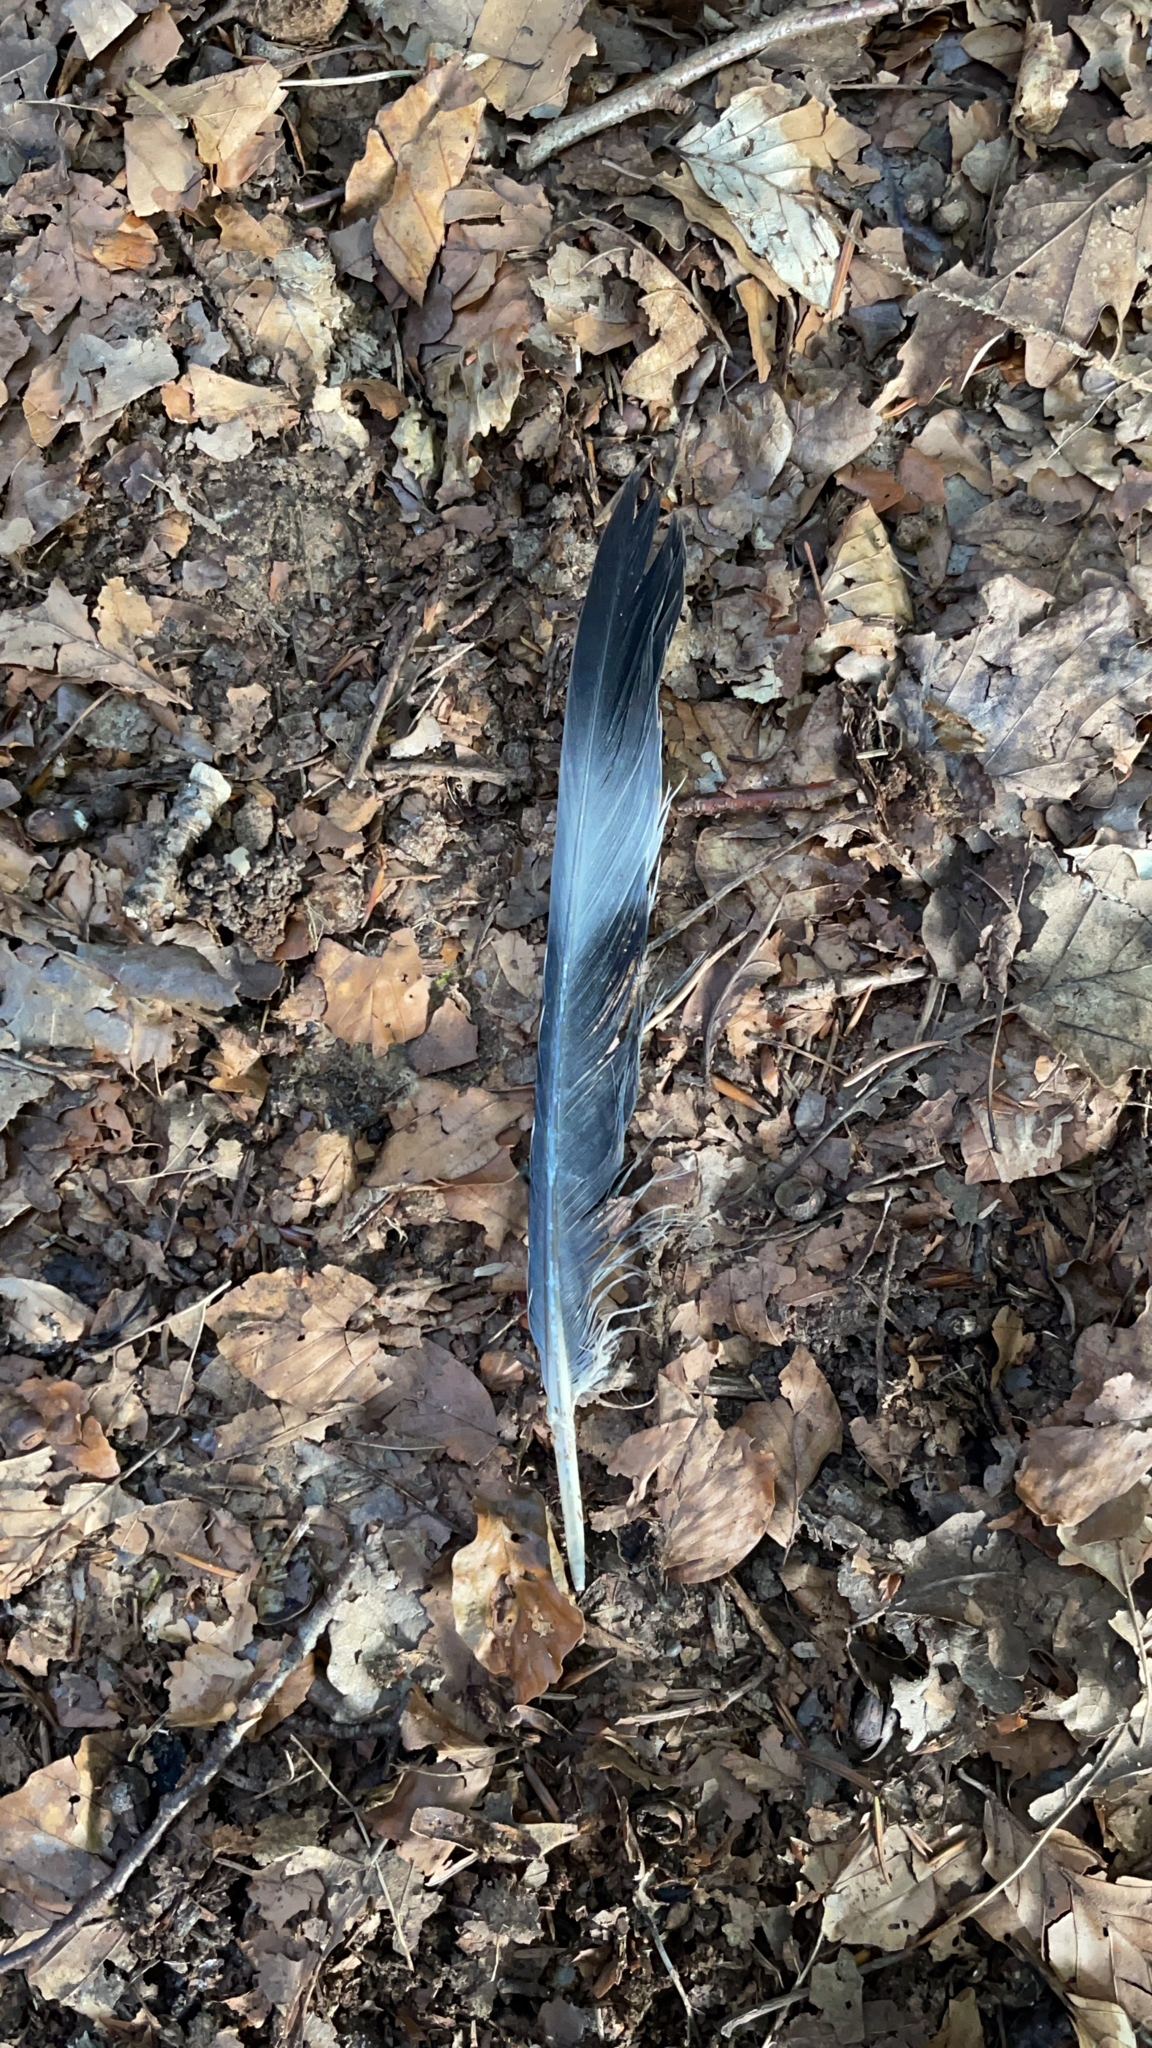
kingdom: Animalia
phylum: Chordata
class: Aves
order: Columbiformes
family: Columbidae
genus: Columba
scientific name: Columba palumbus
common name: Common wood pigeon
